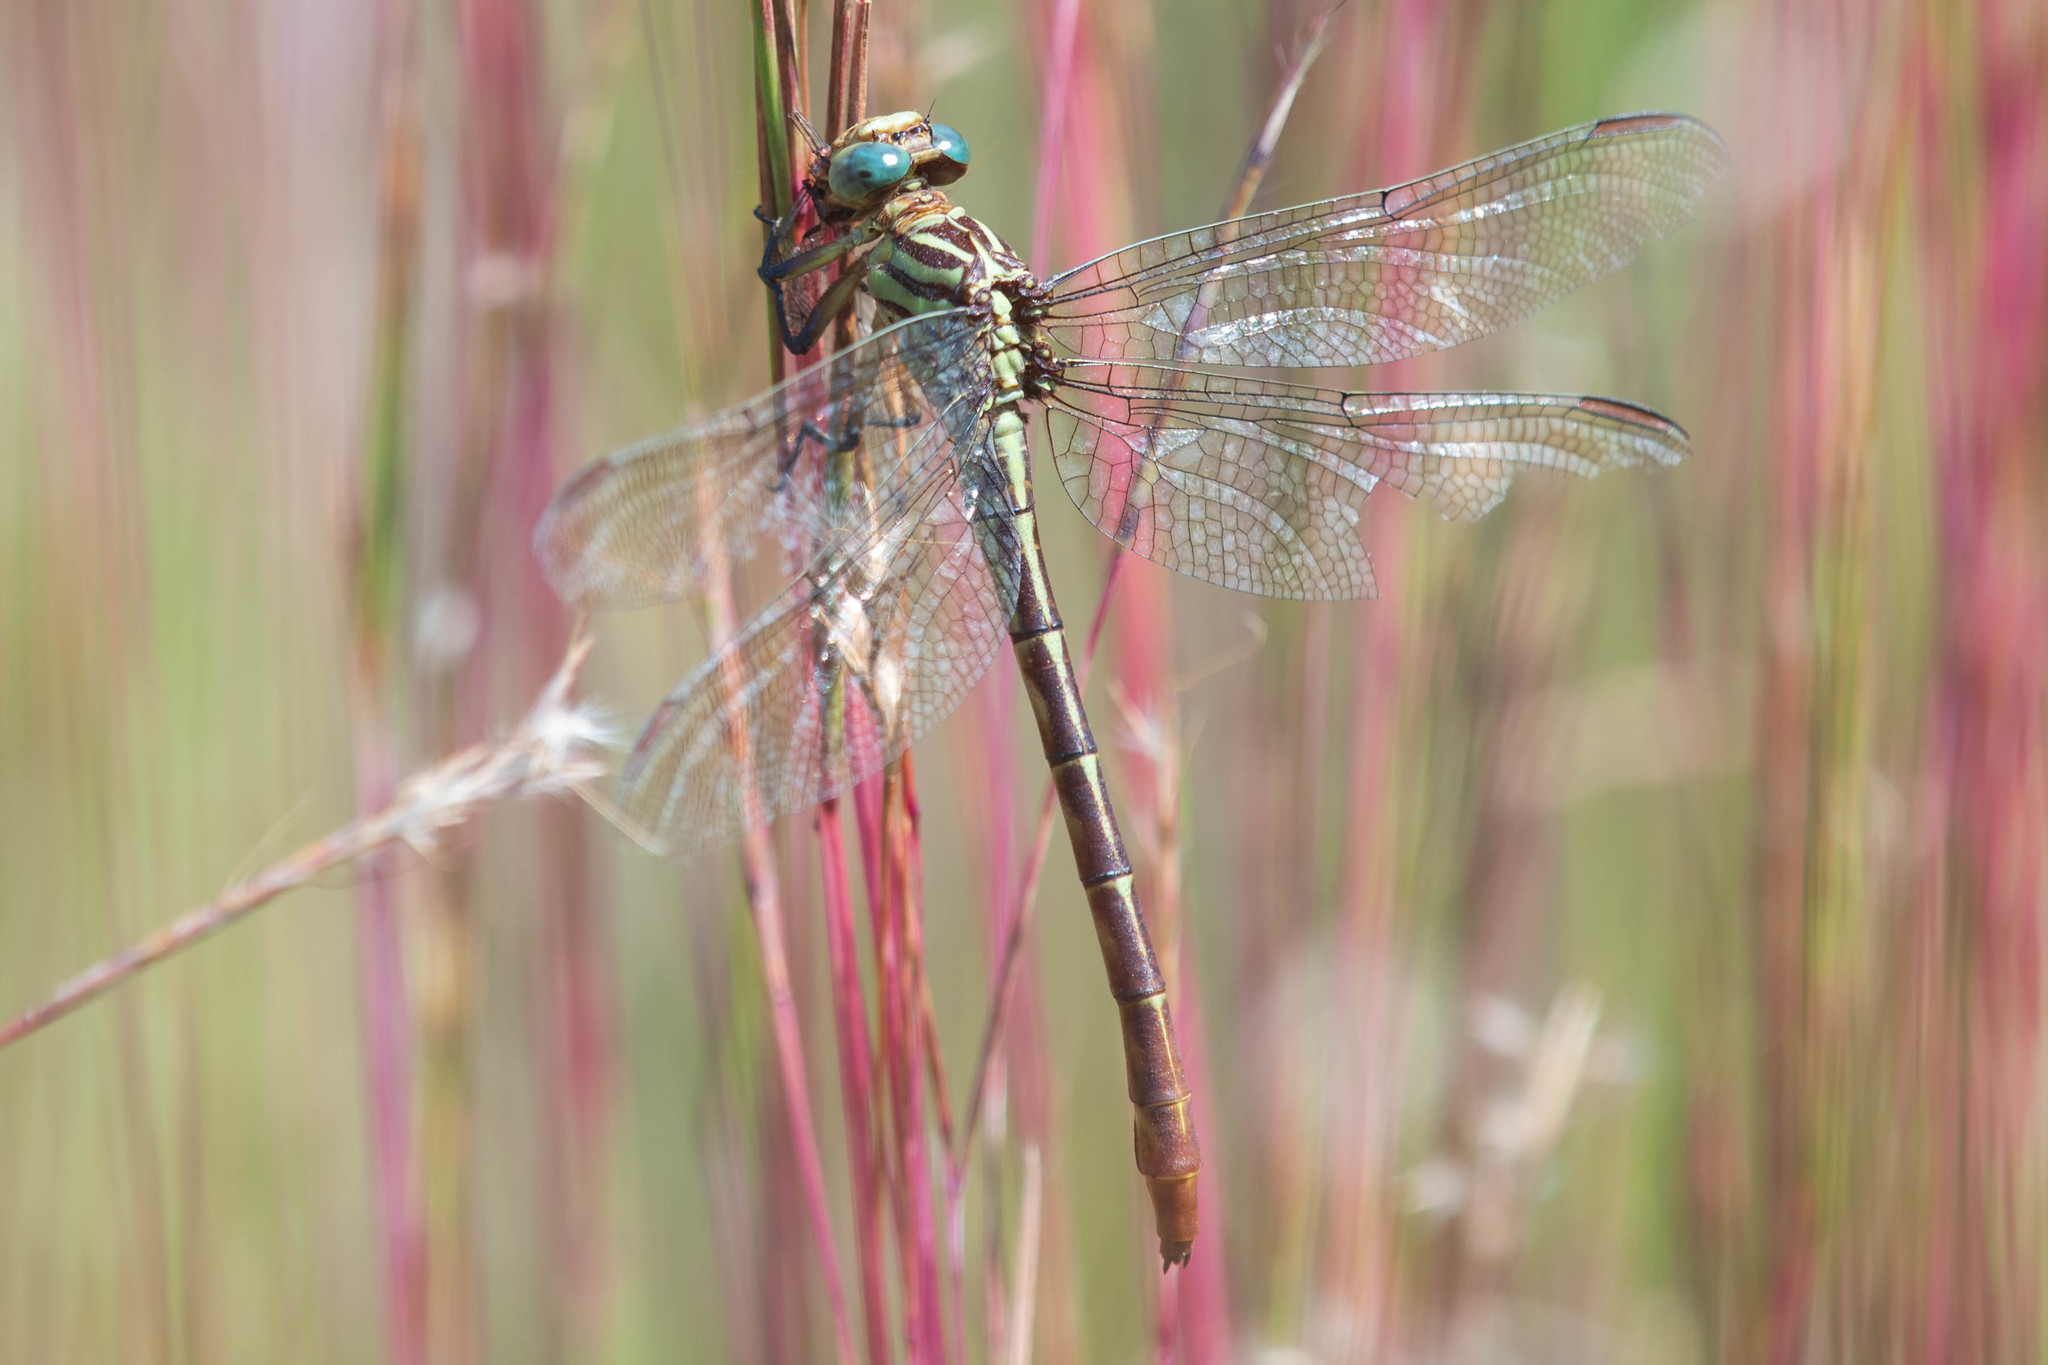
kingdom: Animalia
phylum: Arthropoda
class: Insecta
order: Odonata
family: Gomphidae
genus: Stylurus
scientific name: Stylurus plagiatus
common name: Russet-tipped clubtail
